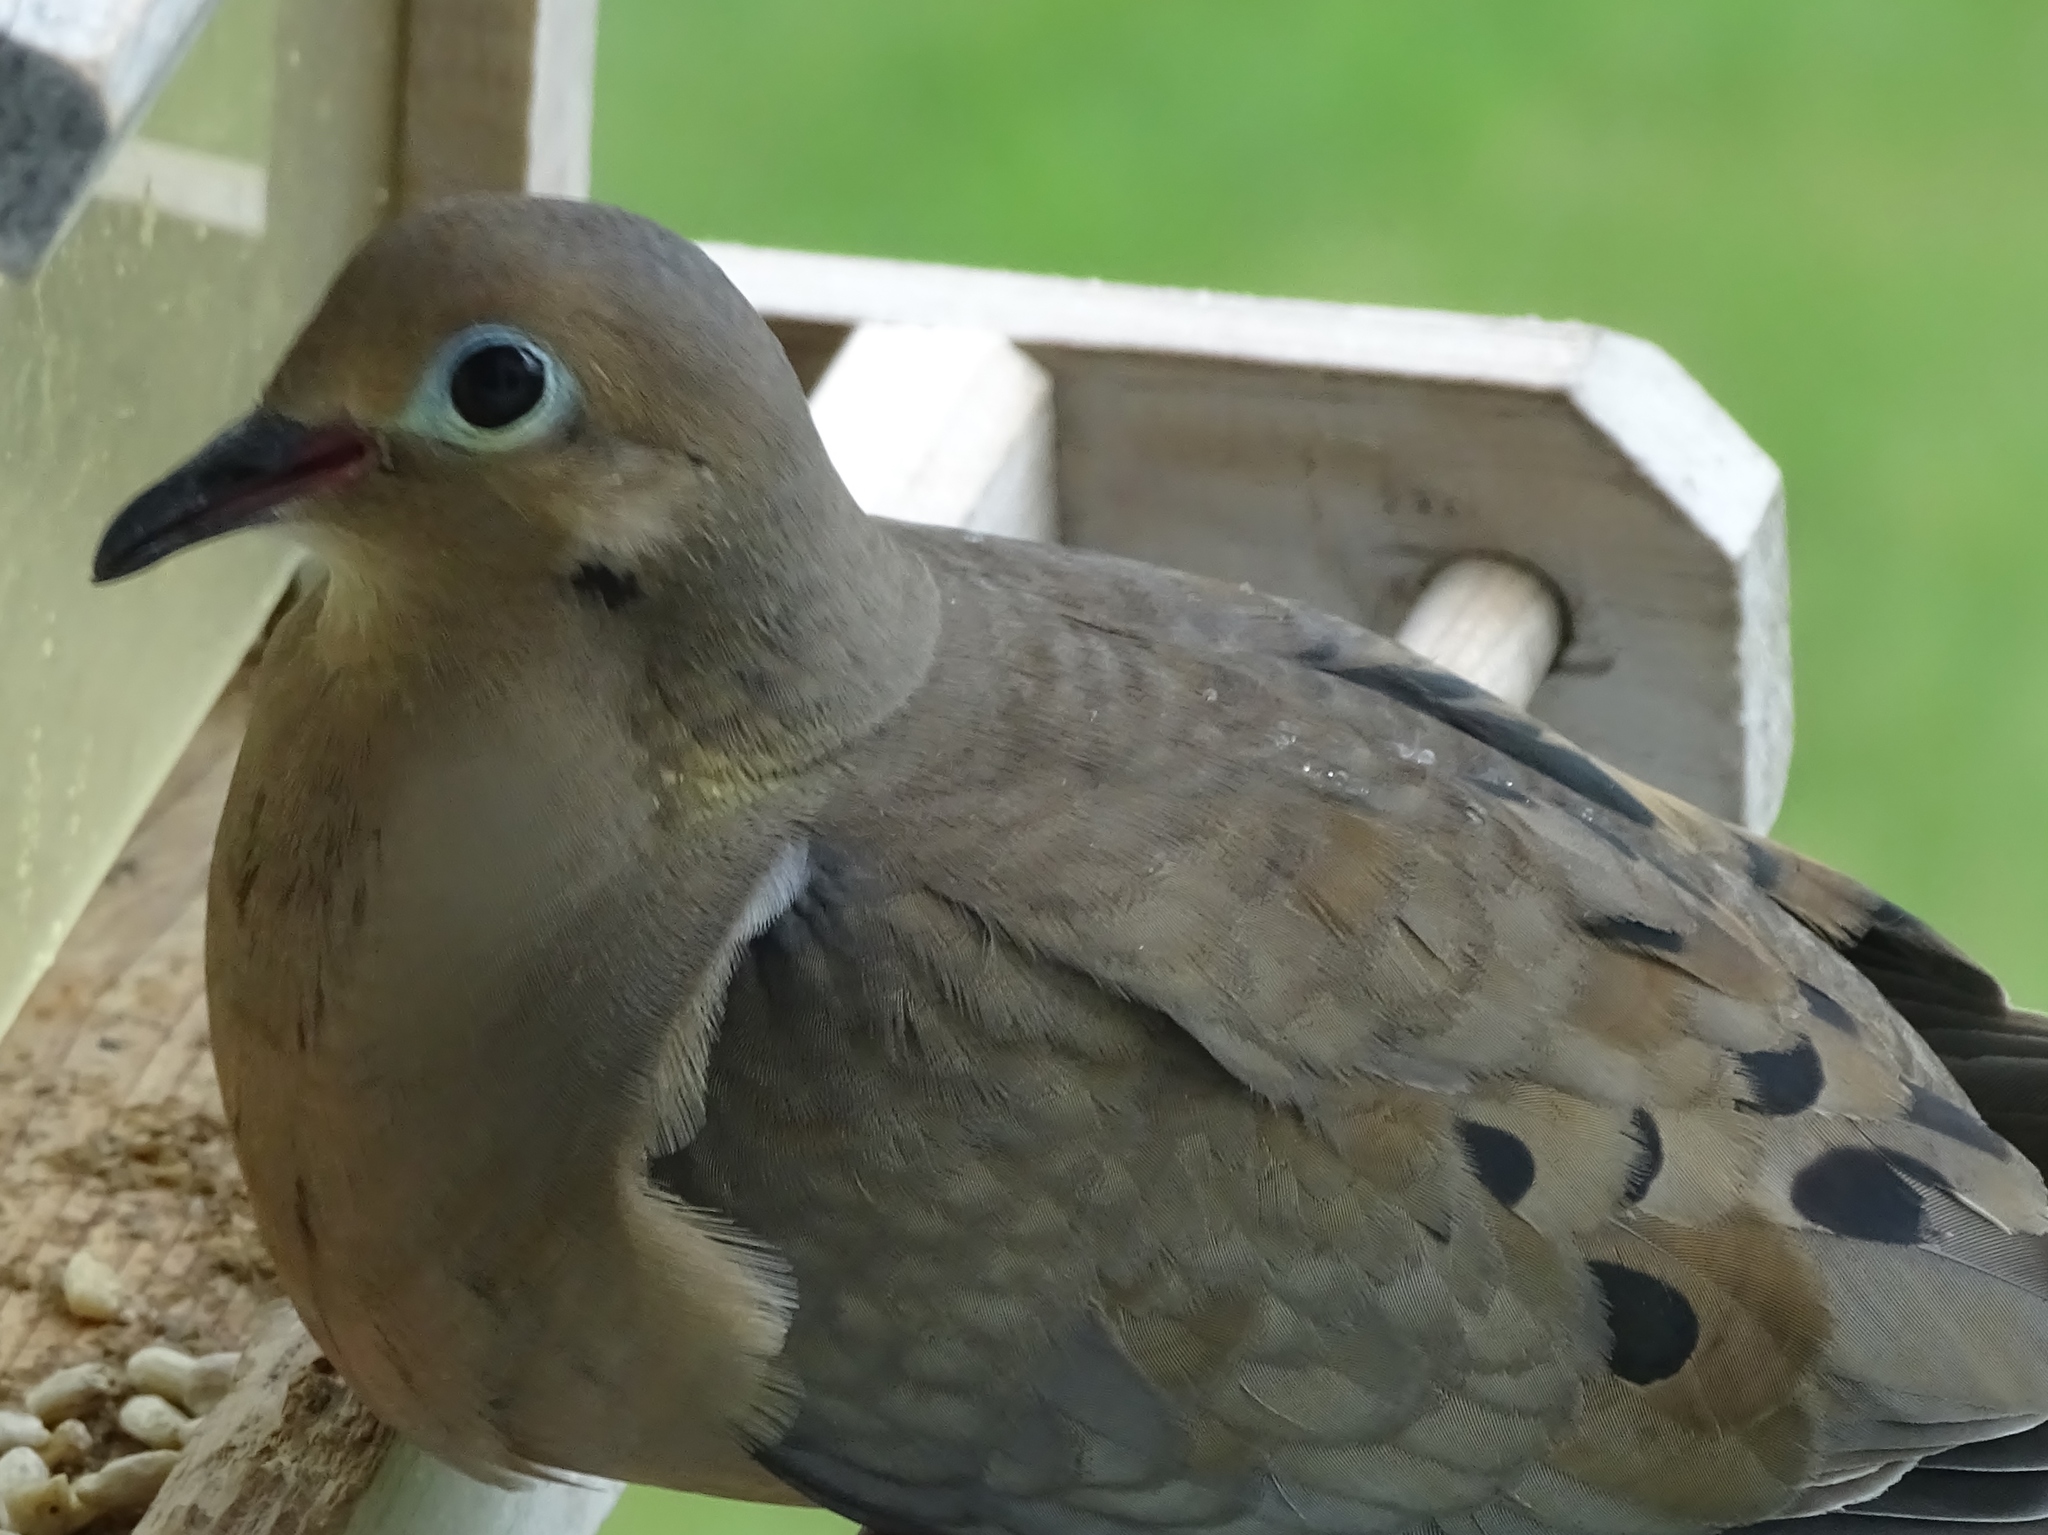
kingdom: Animalia
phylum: Chordata
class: Aves
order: Columbiformes
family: Columbidae
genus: Zenaida
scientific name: Zenaida macroura
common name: Mourning dove
